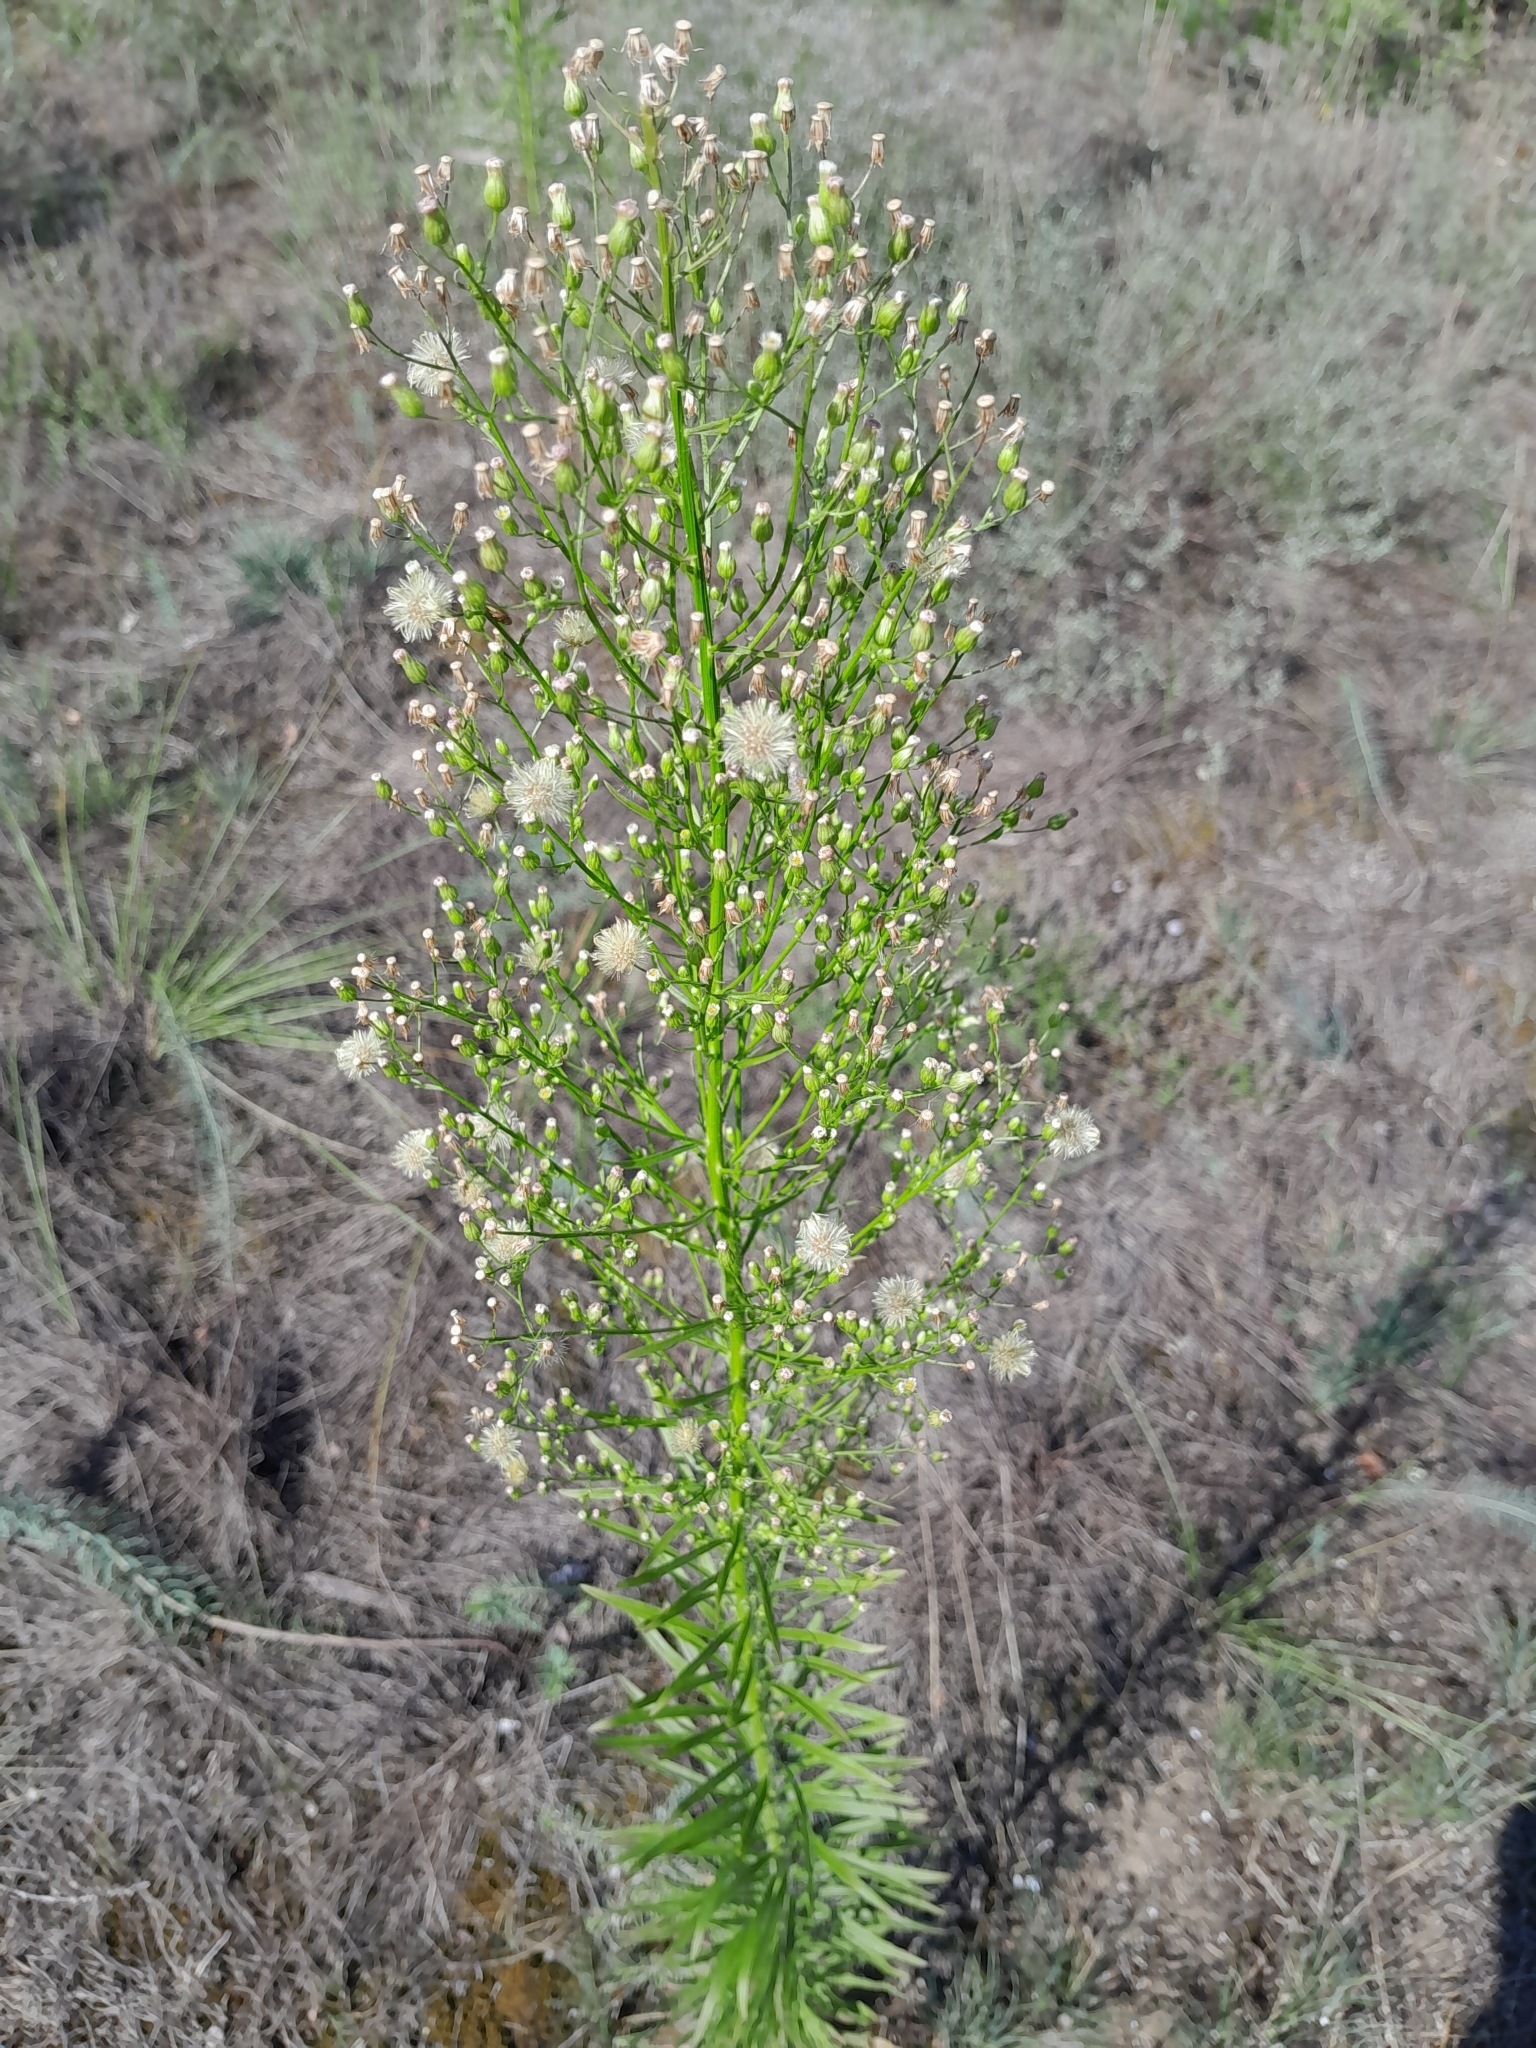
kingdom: Plantae
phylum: Tracheophyta
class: Magnoliopsida
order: Asterales
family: Asteraceae
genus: Erigeron
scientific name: Erigeron canadensis
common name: Canadian fleabane
